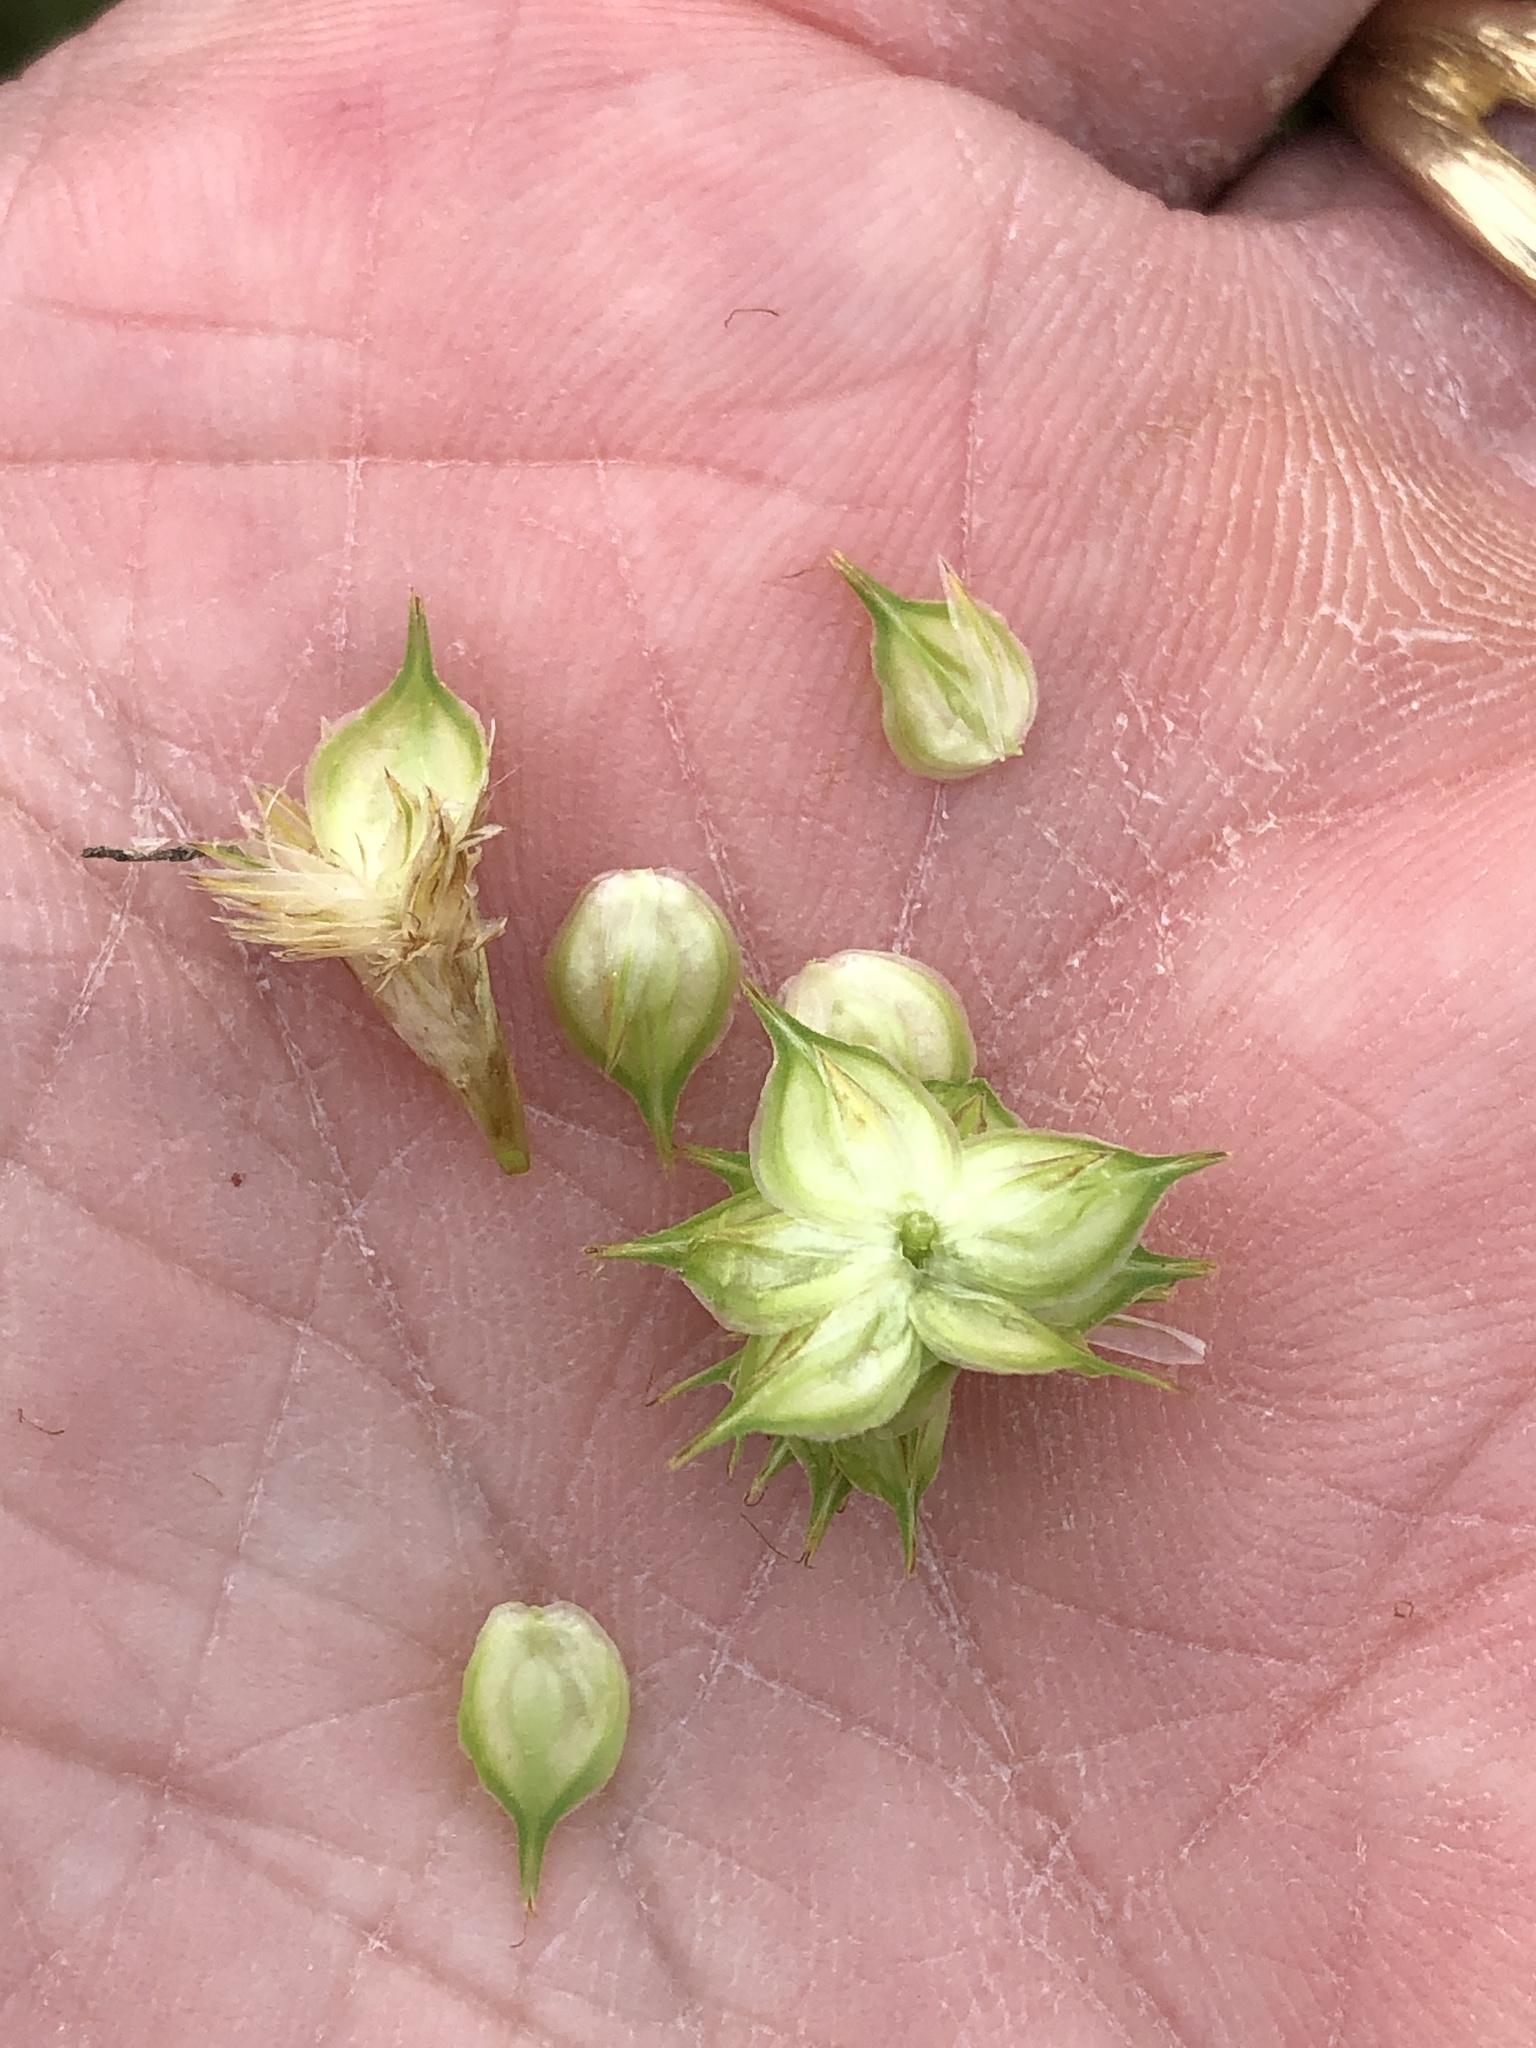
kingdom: Plantae
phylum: Tracheophyta
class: Liliopsida
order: Poales
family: Cyperaceae
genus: Carex
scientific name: Carex tetrastachya
